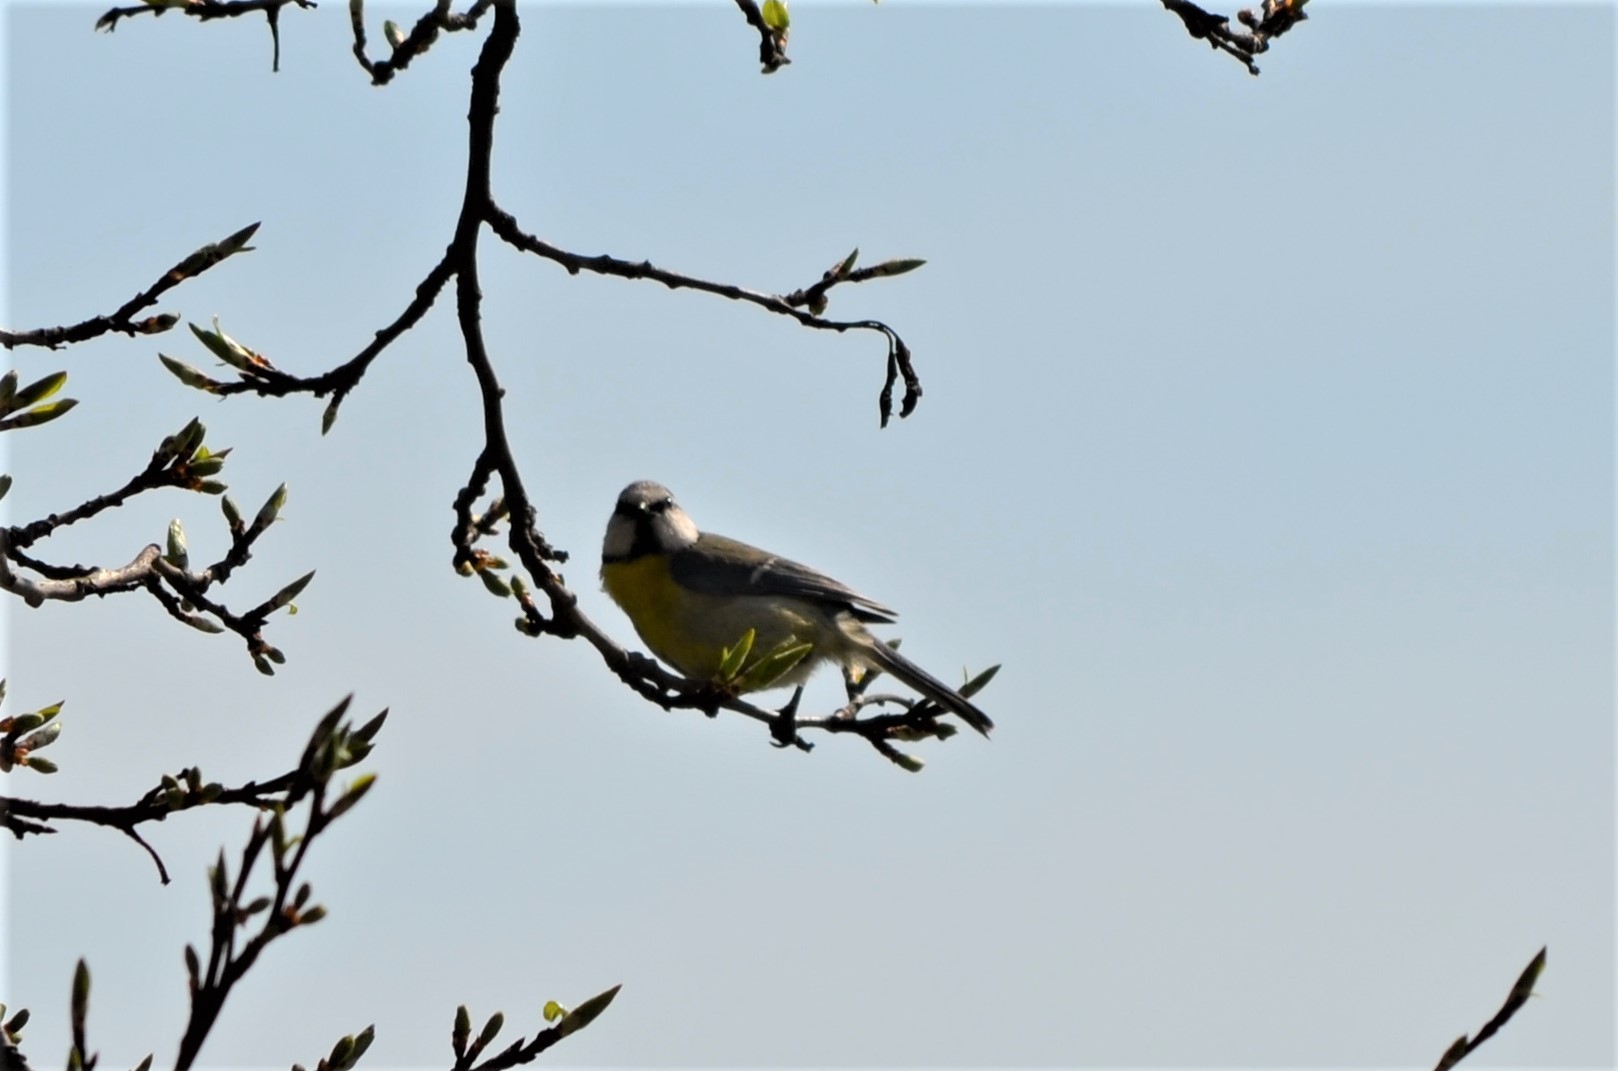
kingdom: Animalia
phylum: Chordata
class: Aves
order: Passeriformes
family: Paridae
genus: Cyanistes
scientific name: Cyanistes caeruleus
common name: Eurasian blue tit
